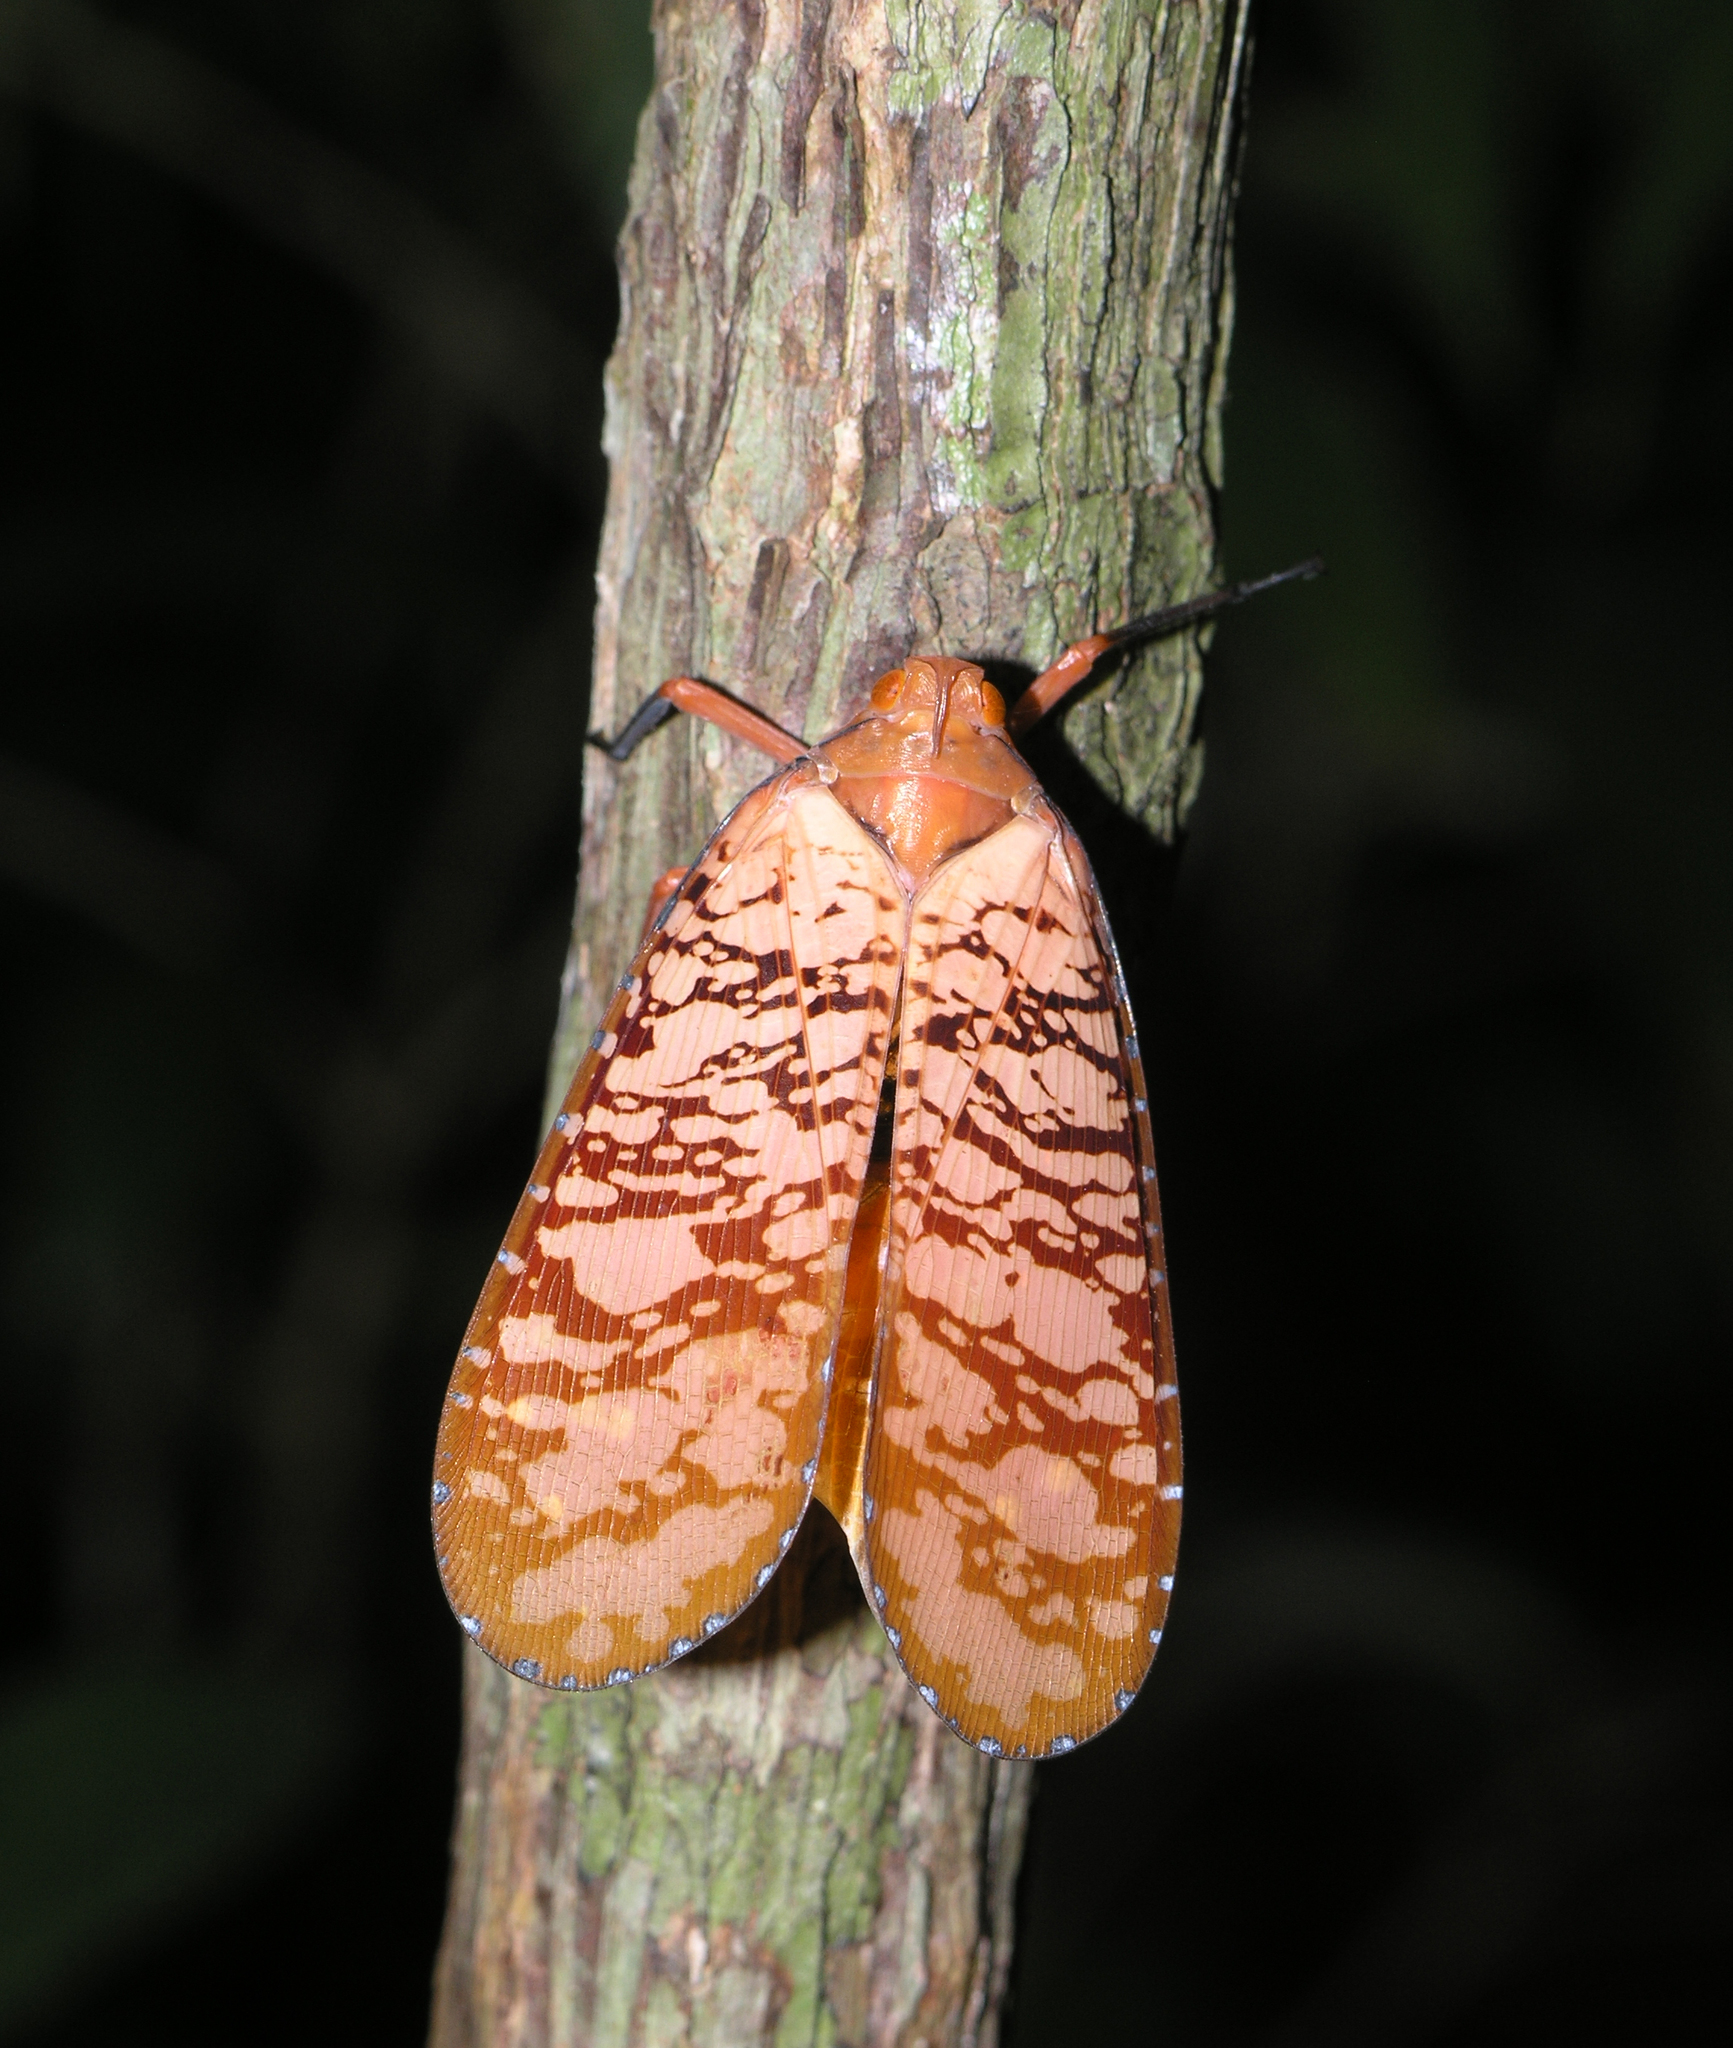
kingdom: Animalia
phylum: Arthropoda
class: Insecta
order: Hemiptera
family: Fulgoridae
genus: Aphaena
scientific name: Aphaena discolor
